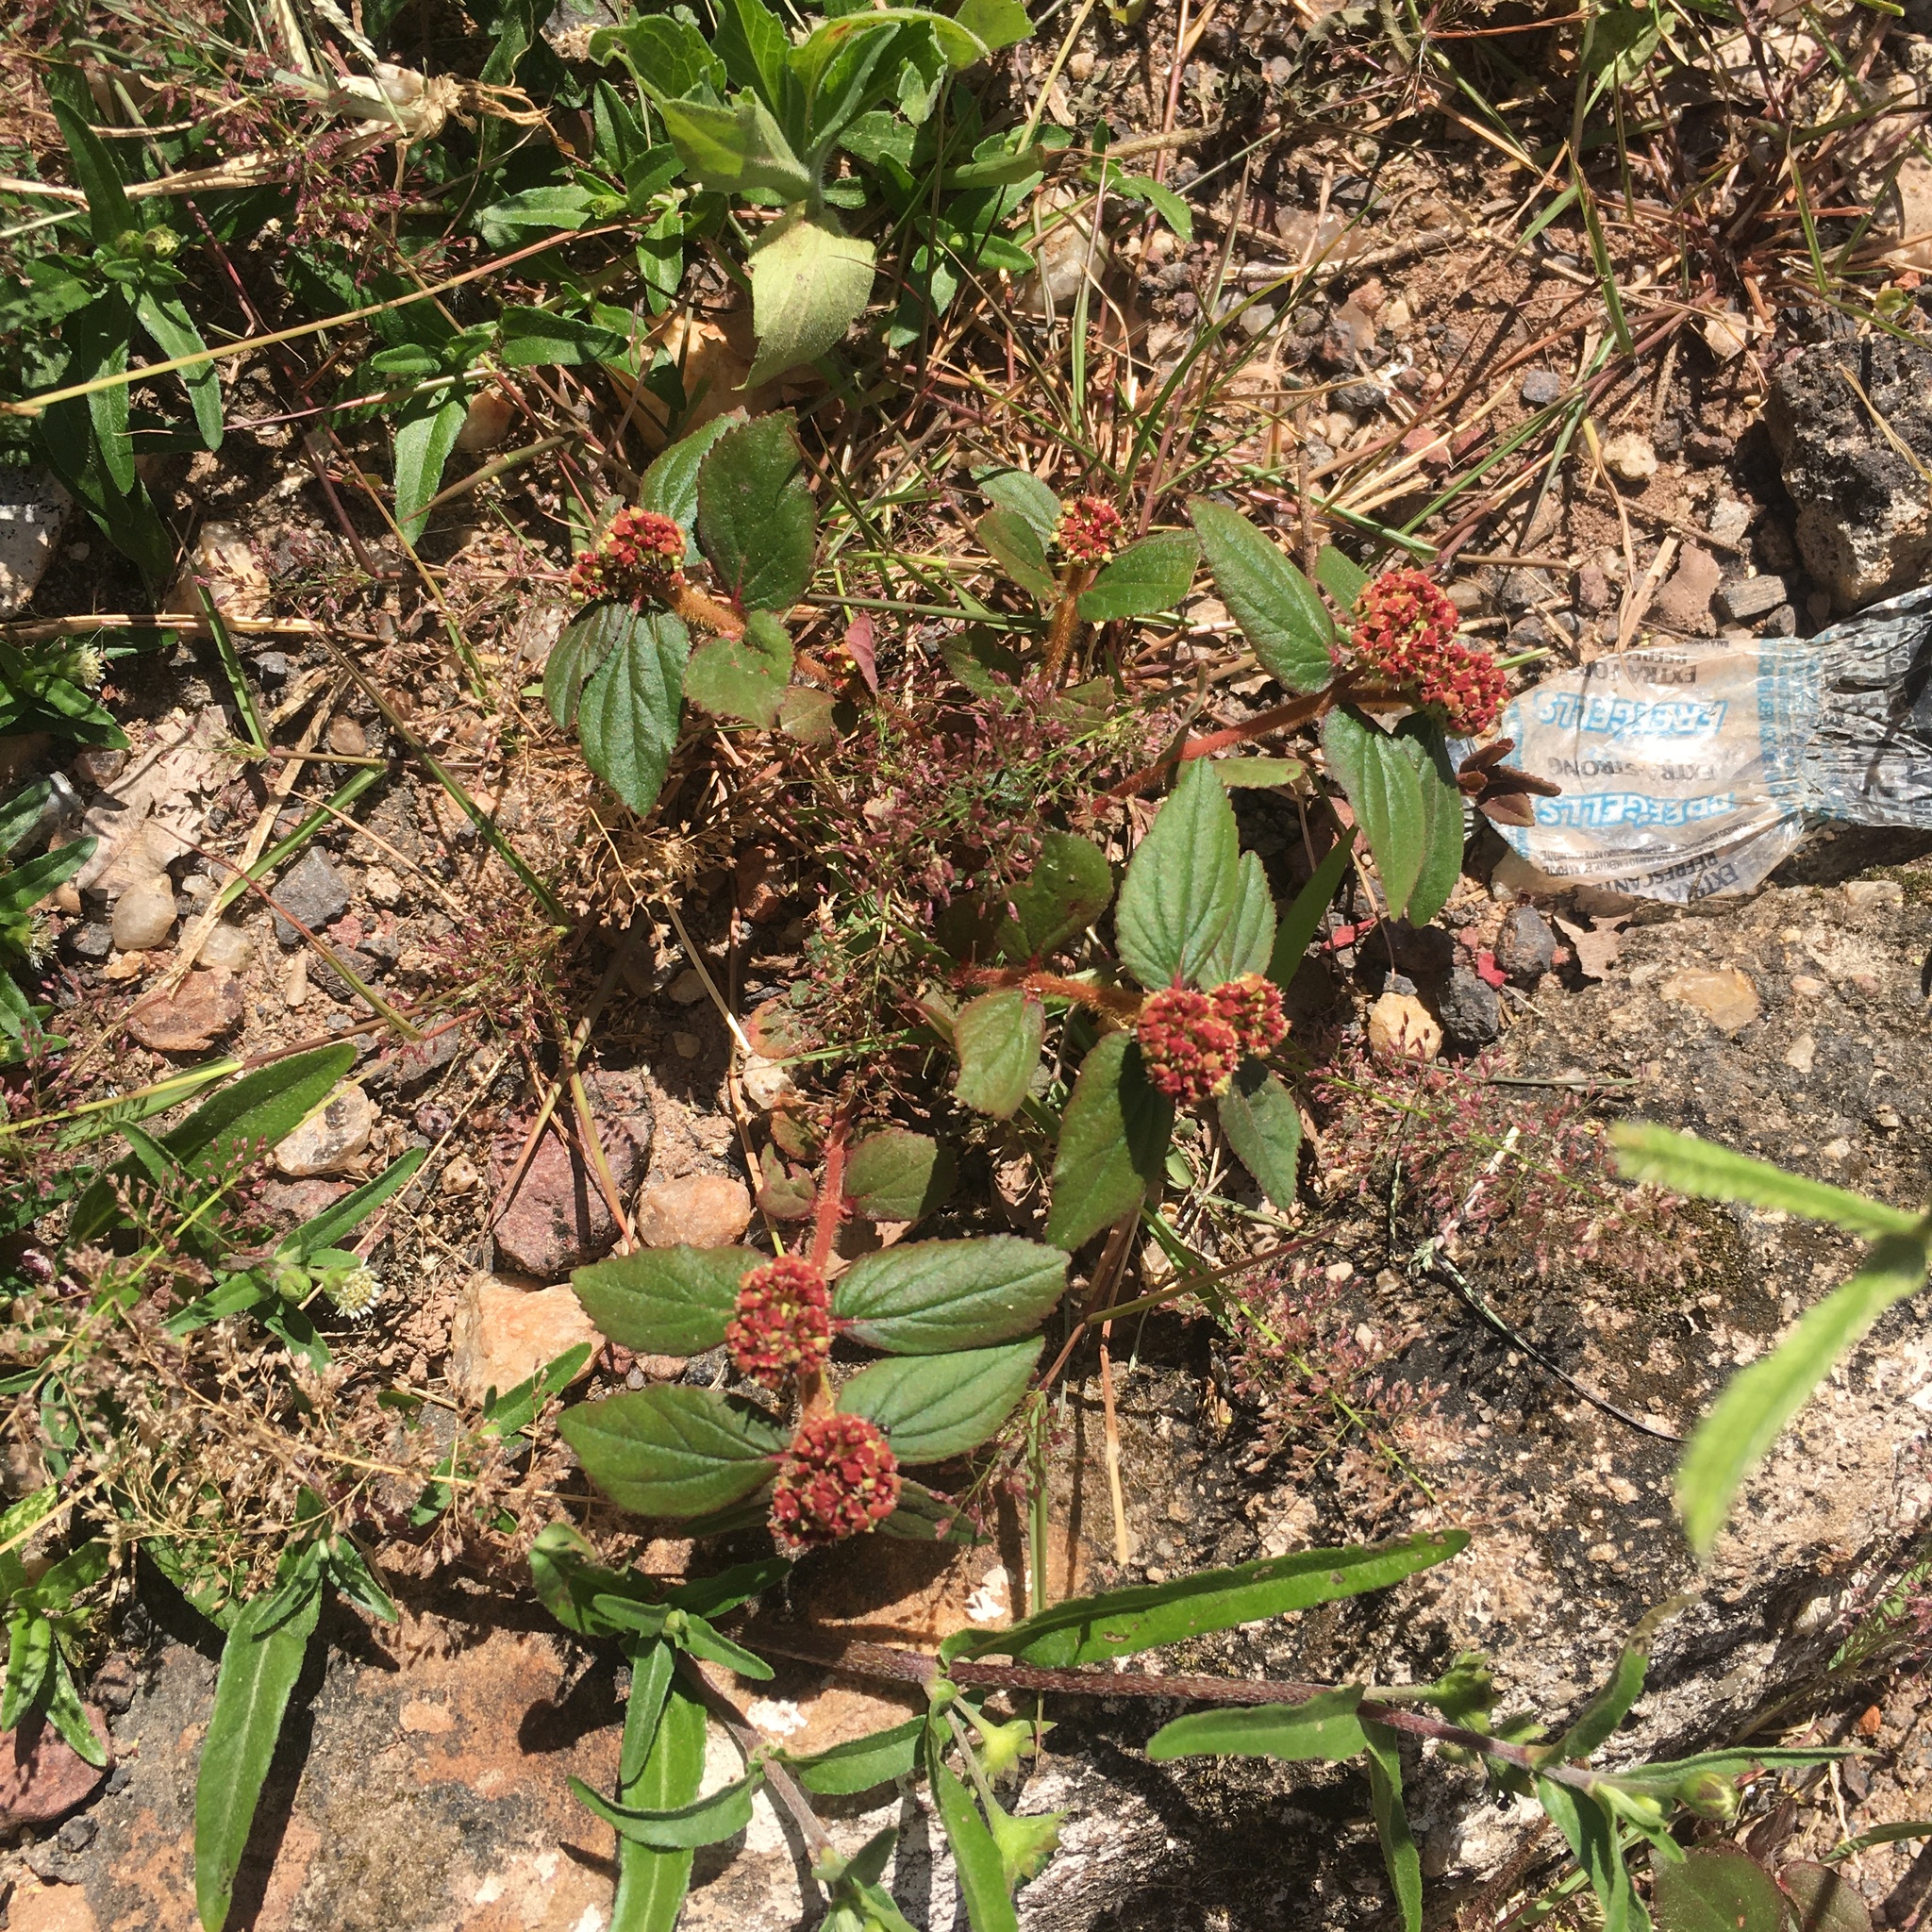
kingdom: Plantae
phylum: Tracheophyta
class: Magnoliopsida
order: Malpighiales
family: Euphorbiaceae
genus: Euphorbia
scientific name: Euphorbia hirta
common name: Pillpod sandmat
